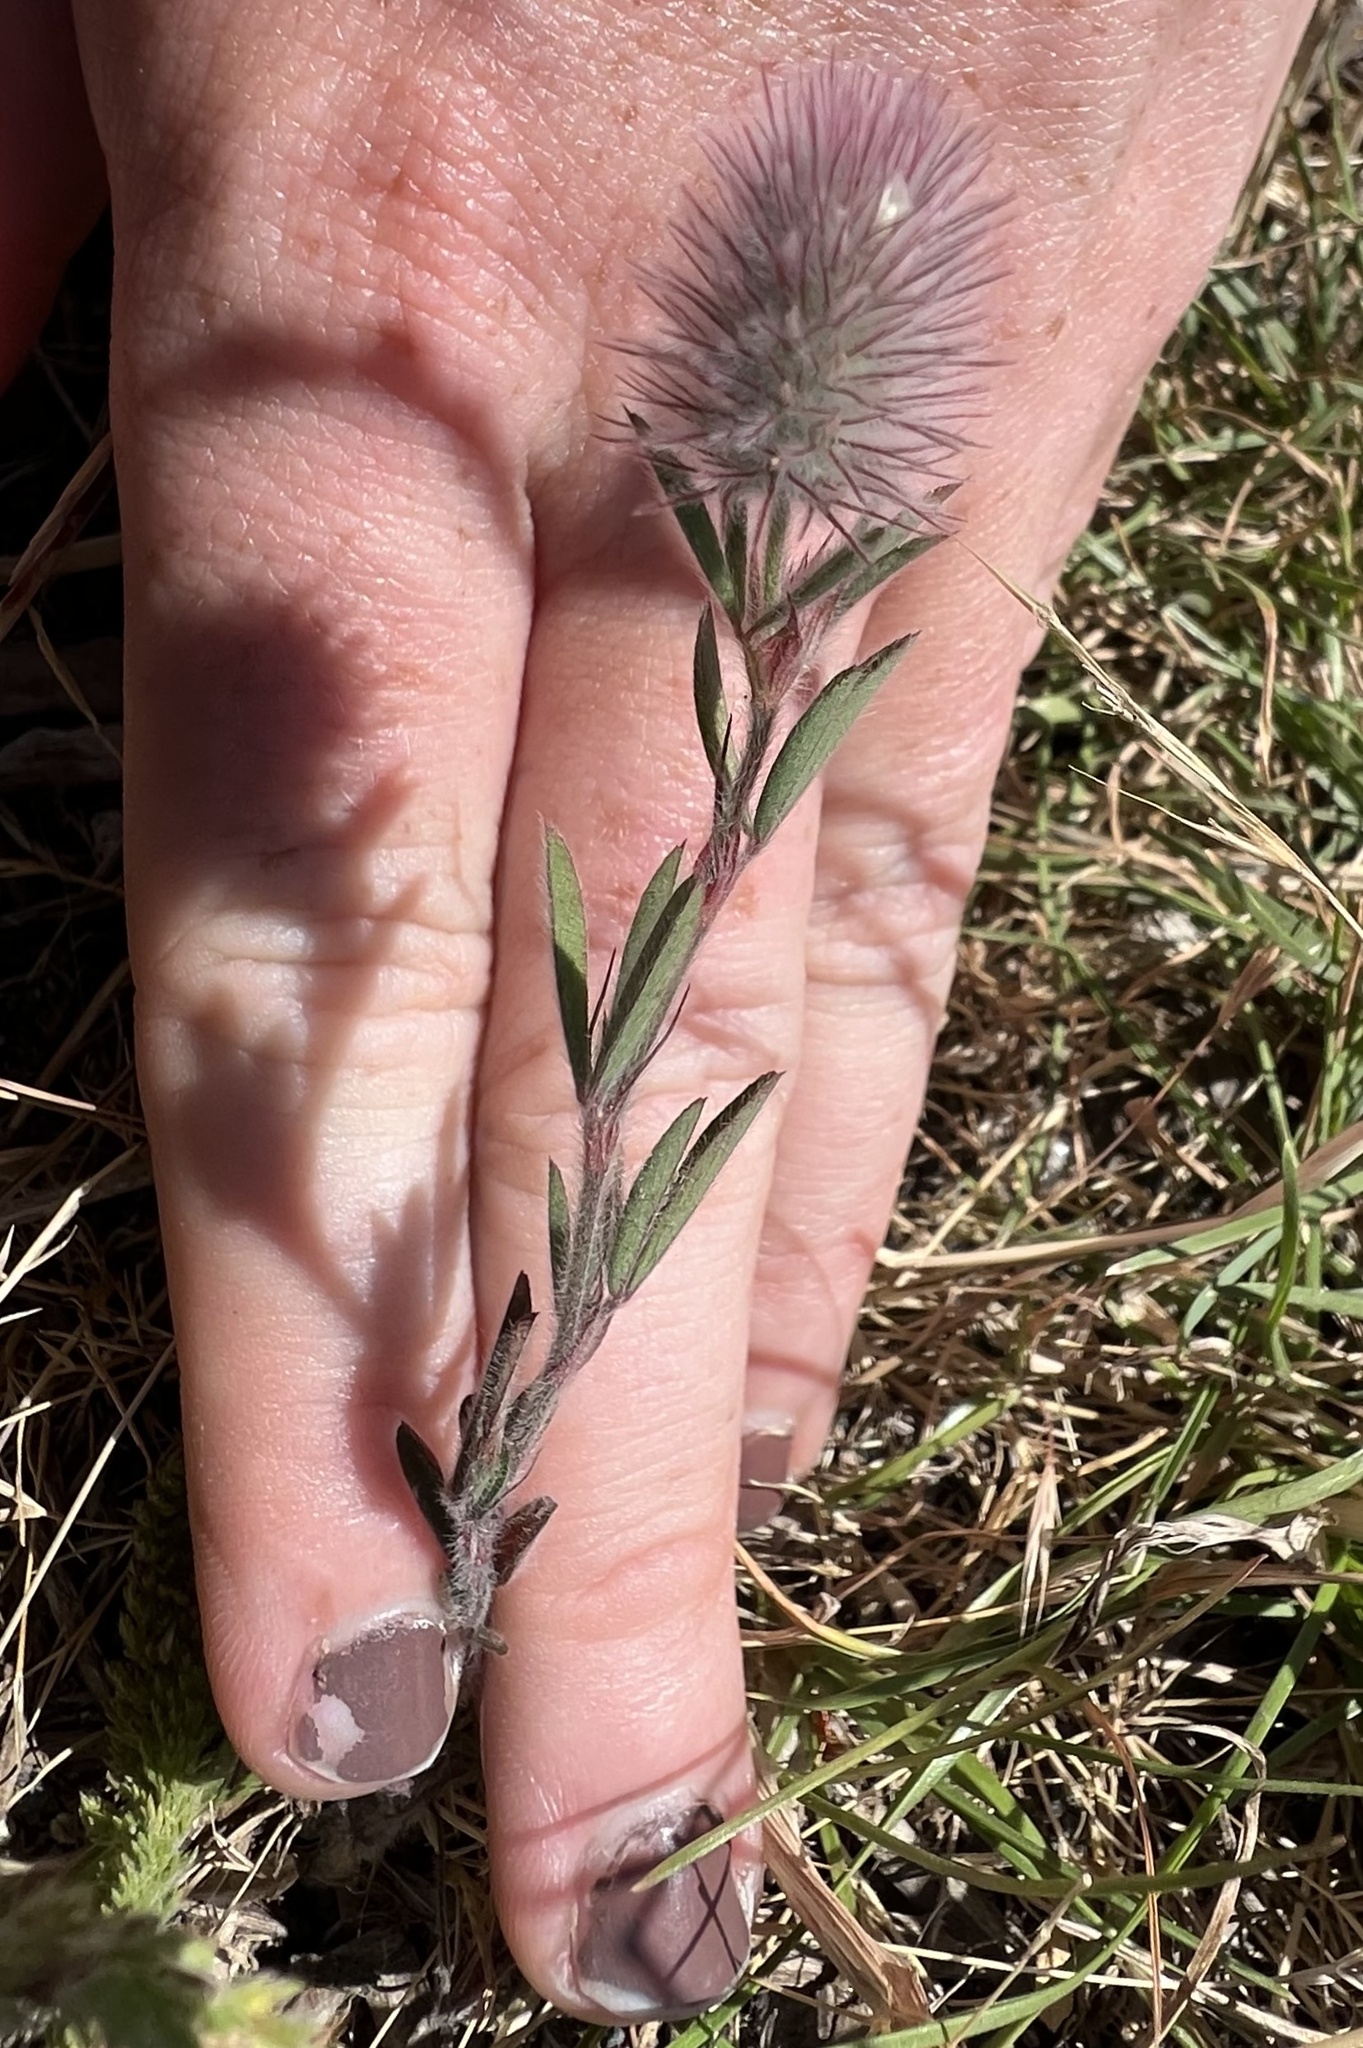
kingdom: Plantae
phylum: Tracheophyta
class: Magnoliopsida
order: Fabales
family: Fabaceae
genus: Trifolium
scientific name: Trifolium arvense
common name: Hare's-foot clover
